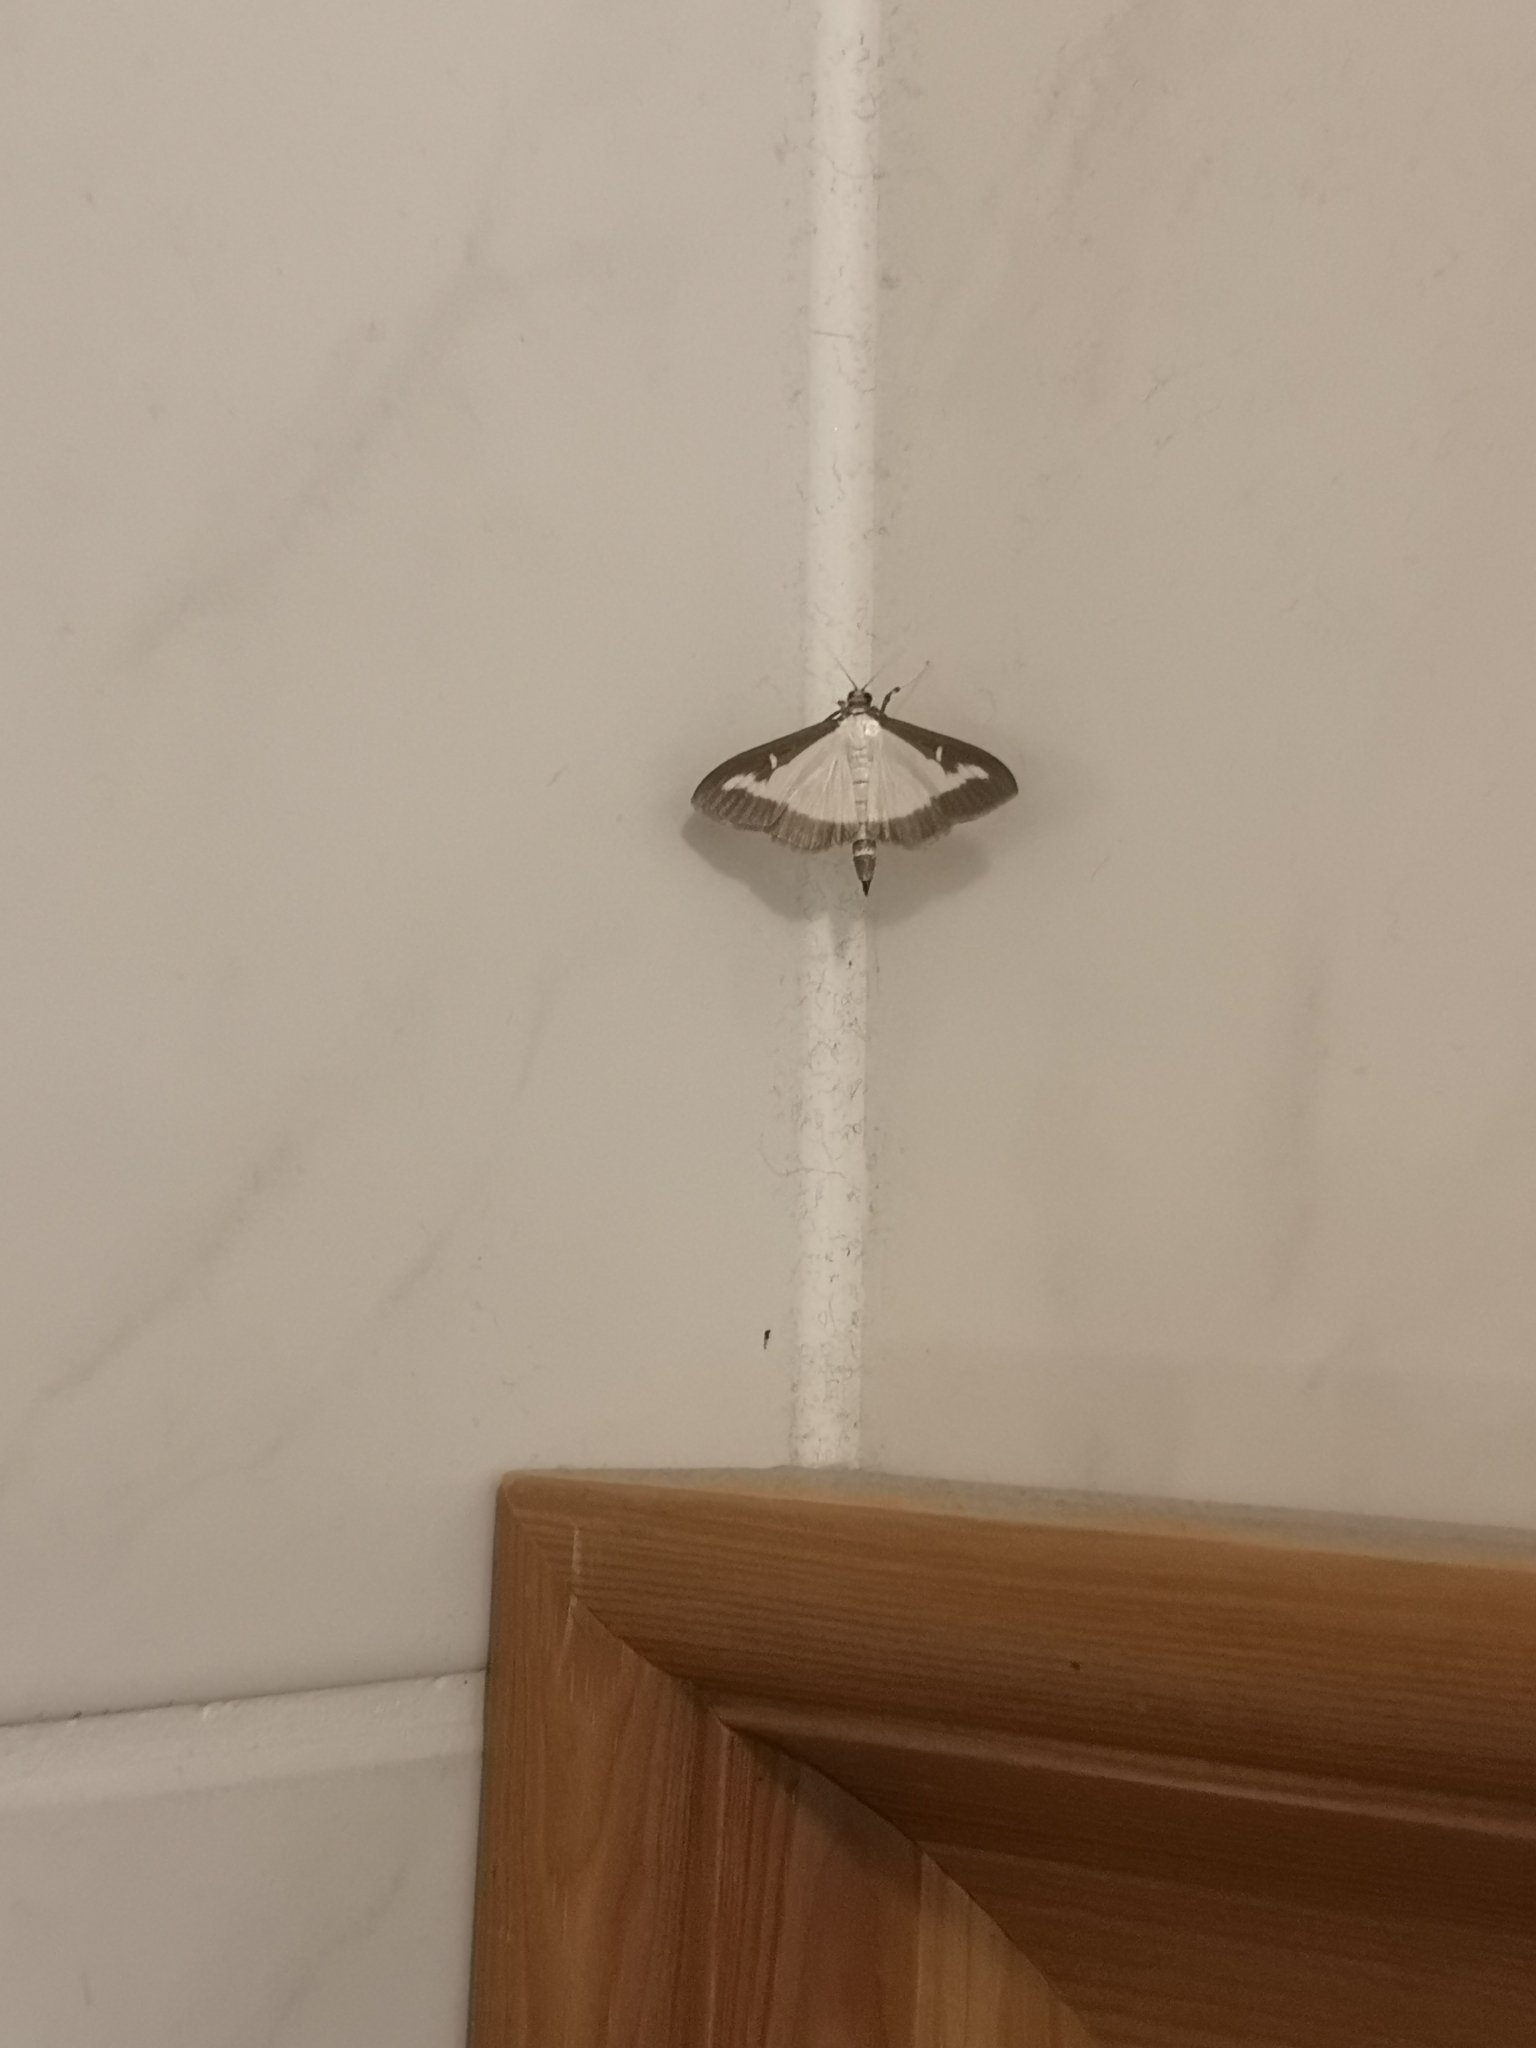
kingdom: Animalia
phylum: Arthropoda
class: Insecta
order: Lepidoptera
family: Crambidae
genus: Cydalima
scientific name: Cydalima perspectalis
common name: Box tree moth
